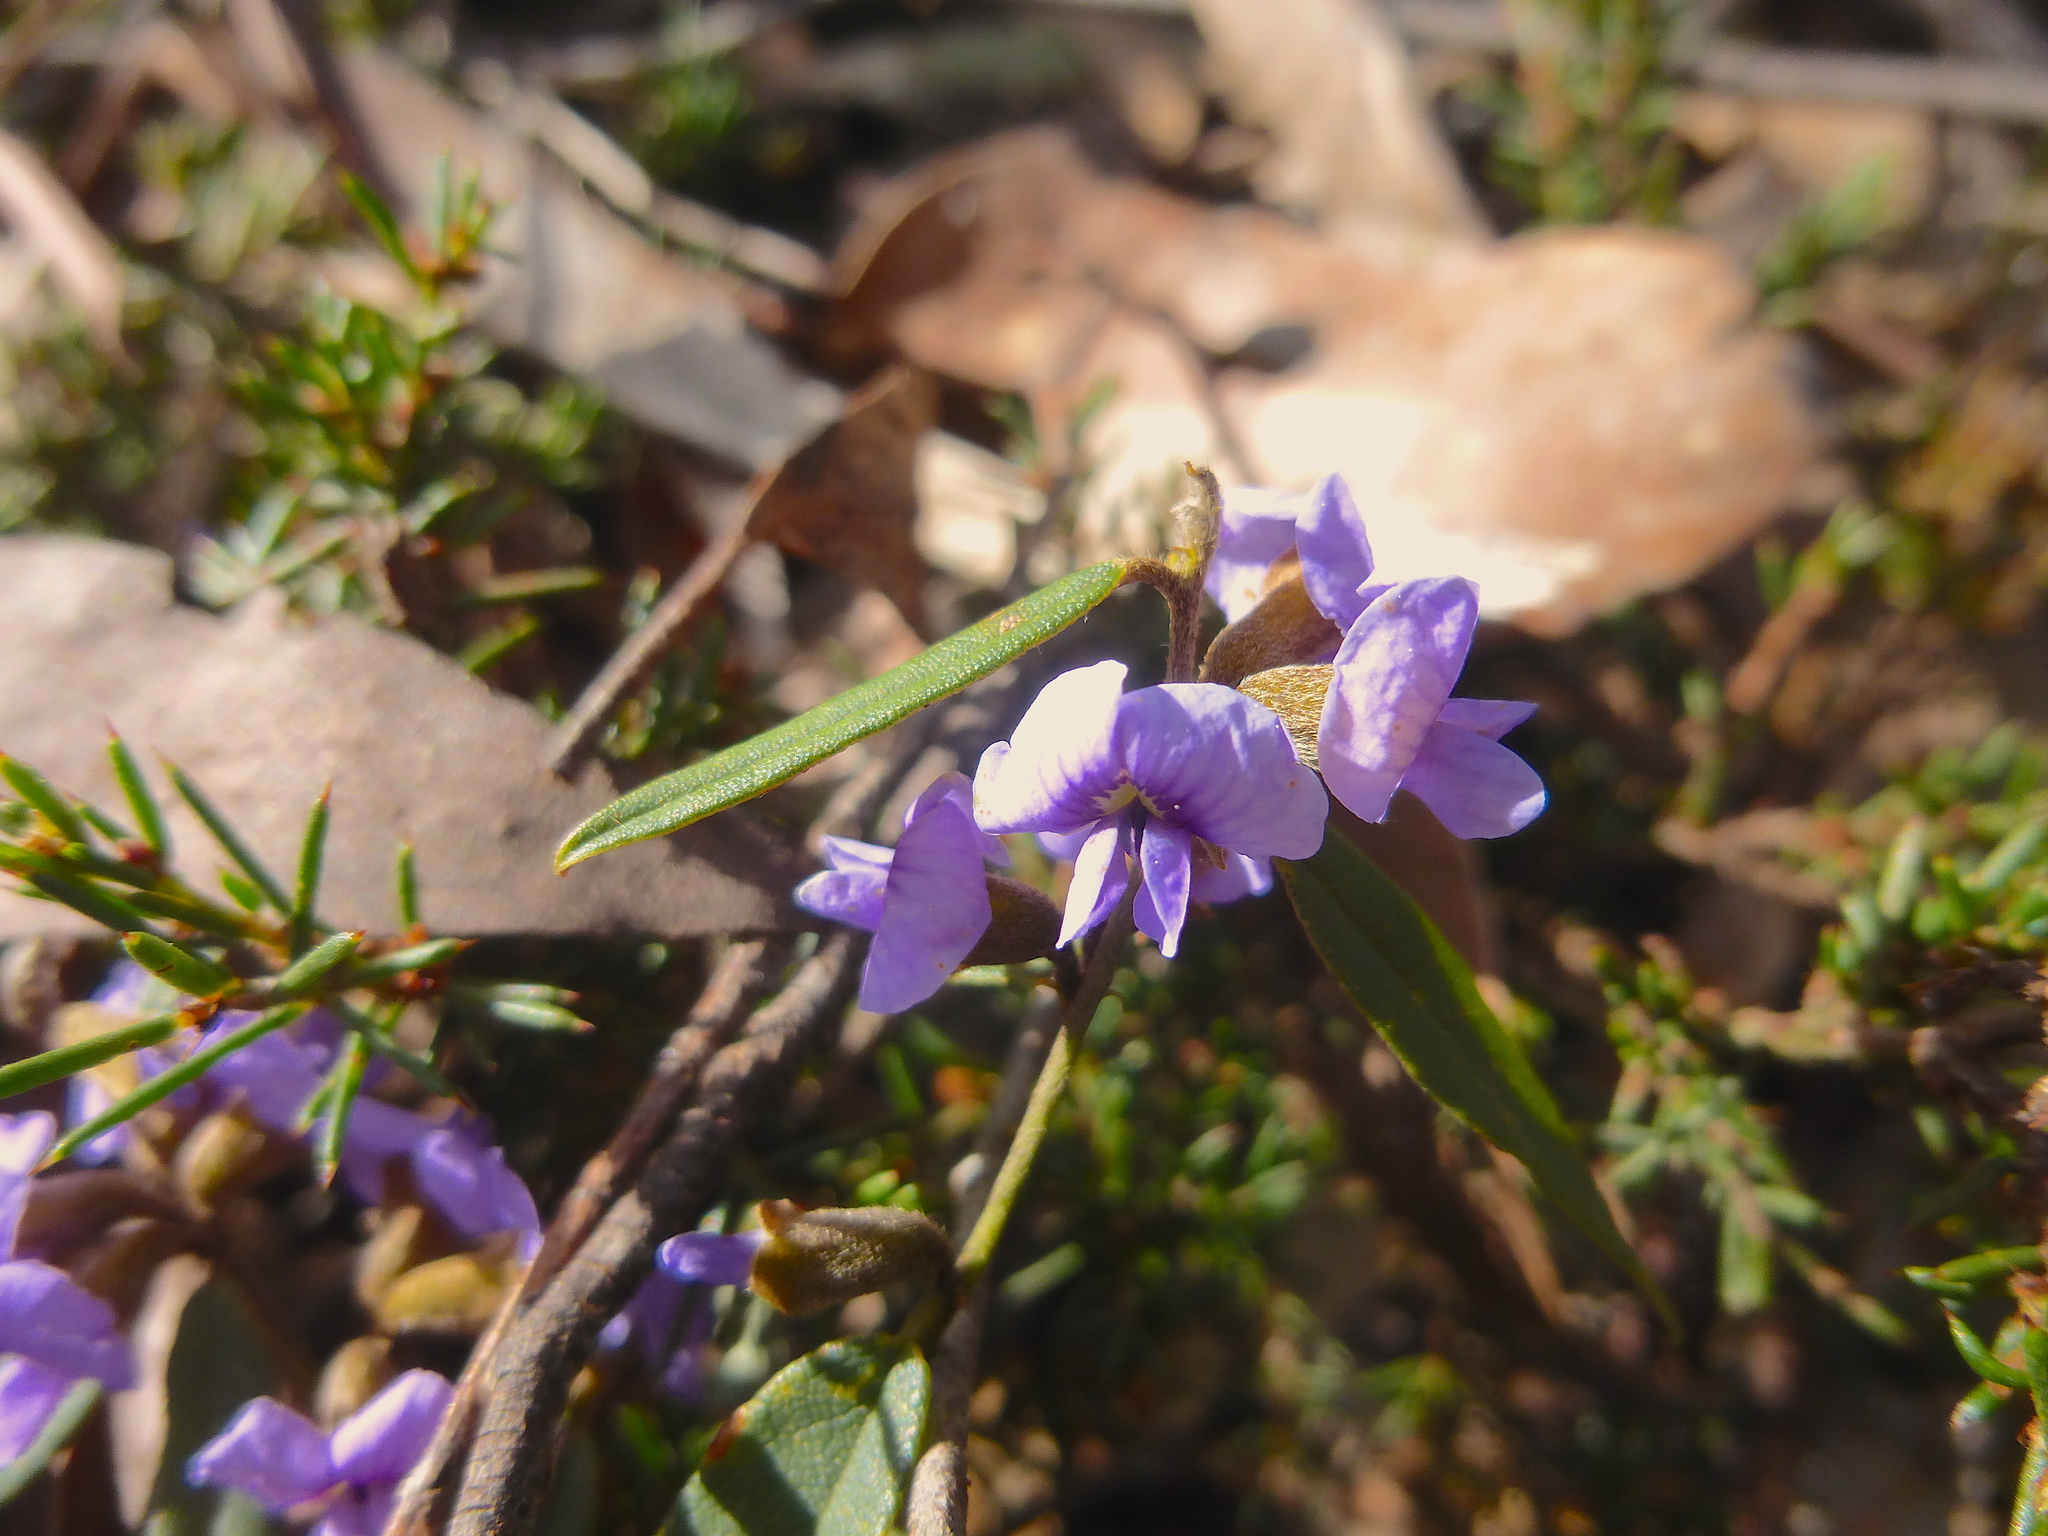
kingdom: Plantae
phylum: Tracheophyta
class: Magnoliopsida
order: Fabales
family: Fabaceae
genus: Hovea
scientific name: Hovea heterophylla
